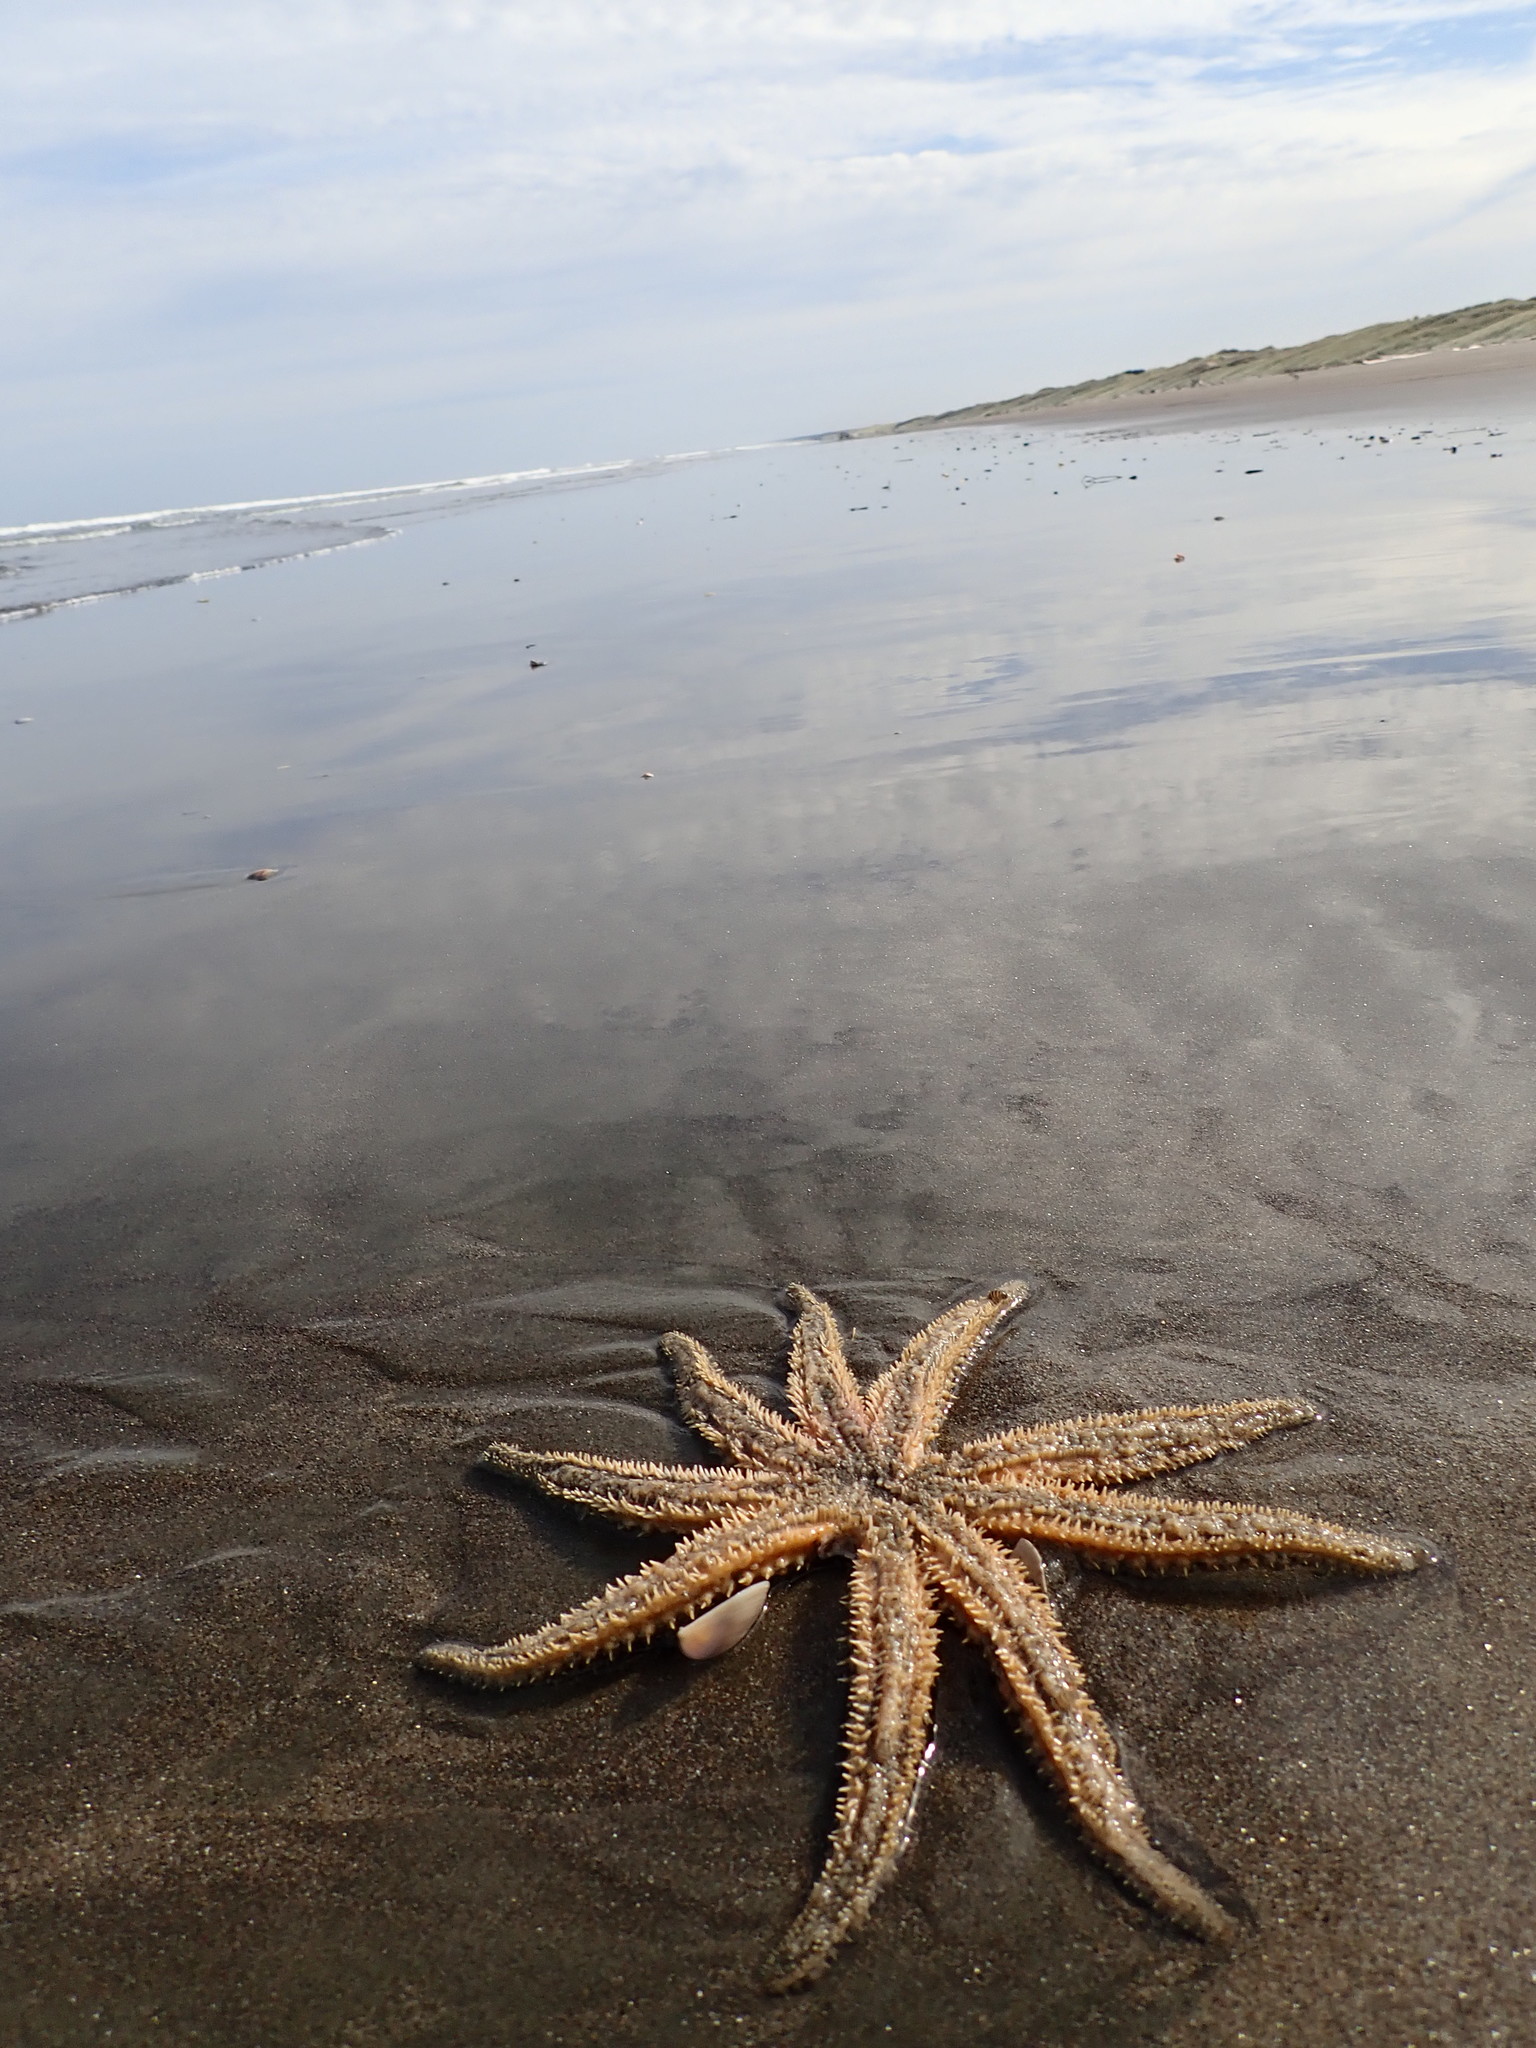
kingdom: Animalia
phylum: Echinodermata
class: Asteroidea
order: Forcipulatida
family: Asteriidae
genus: Coscinasterias
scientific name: Coscinasterias muricata
